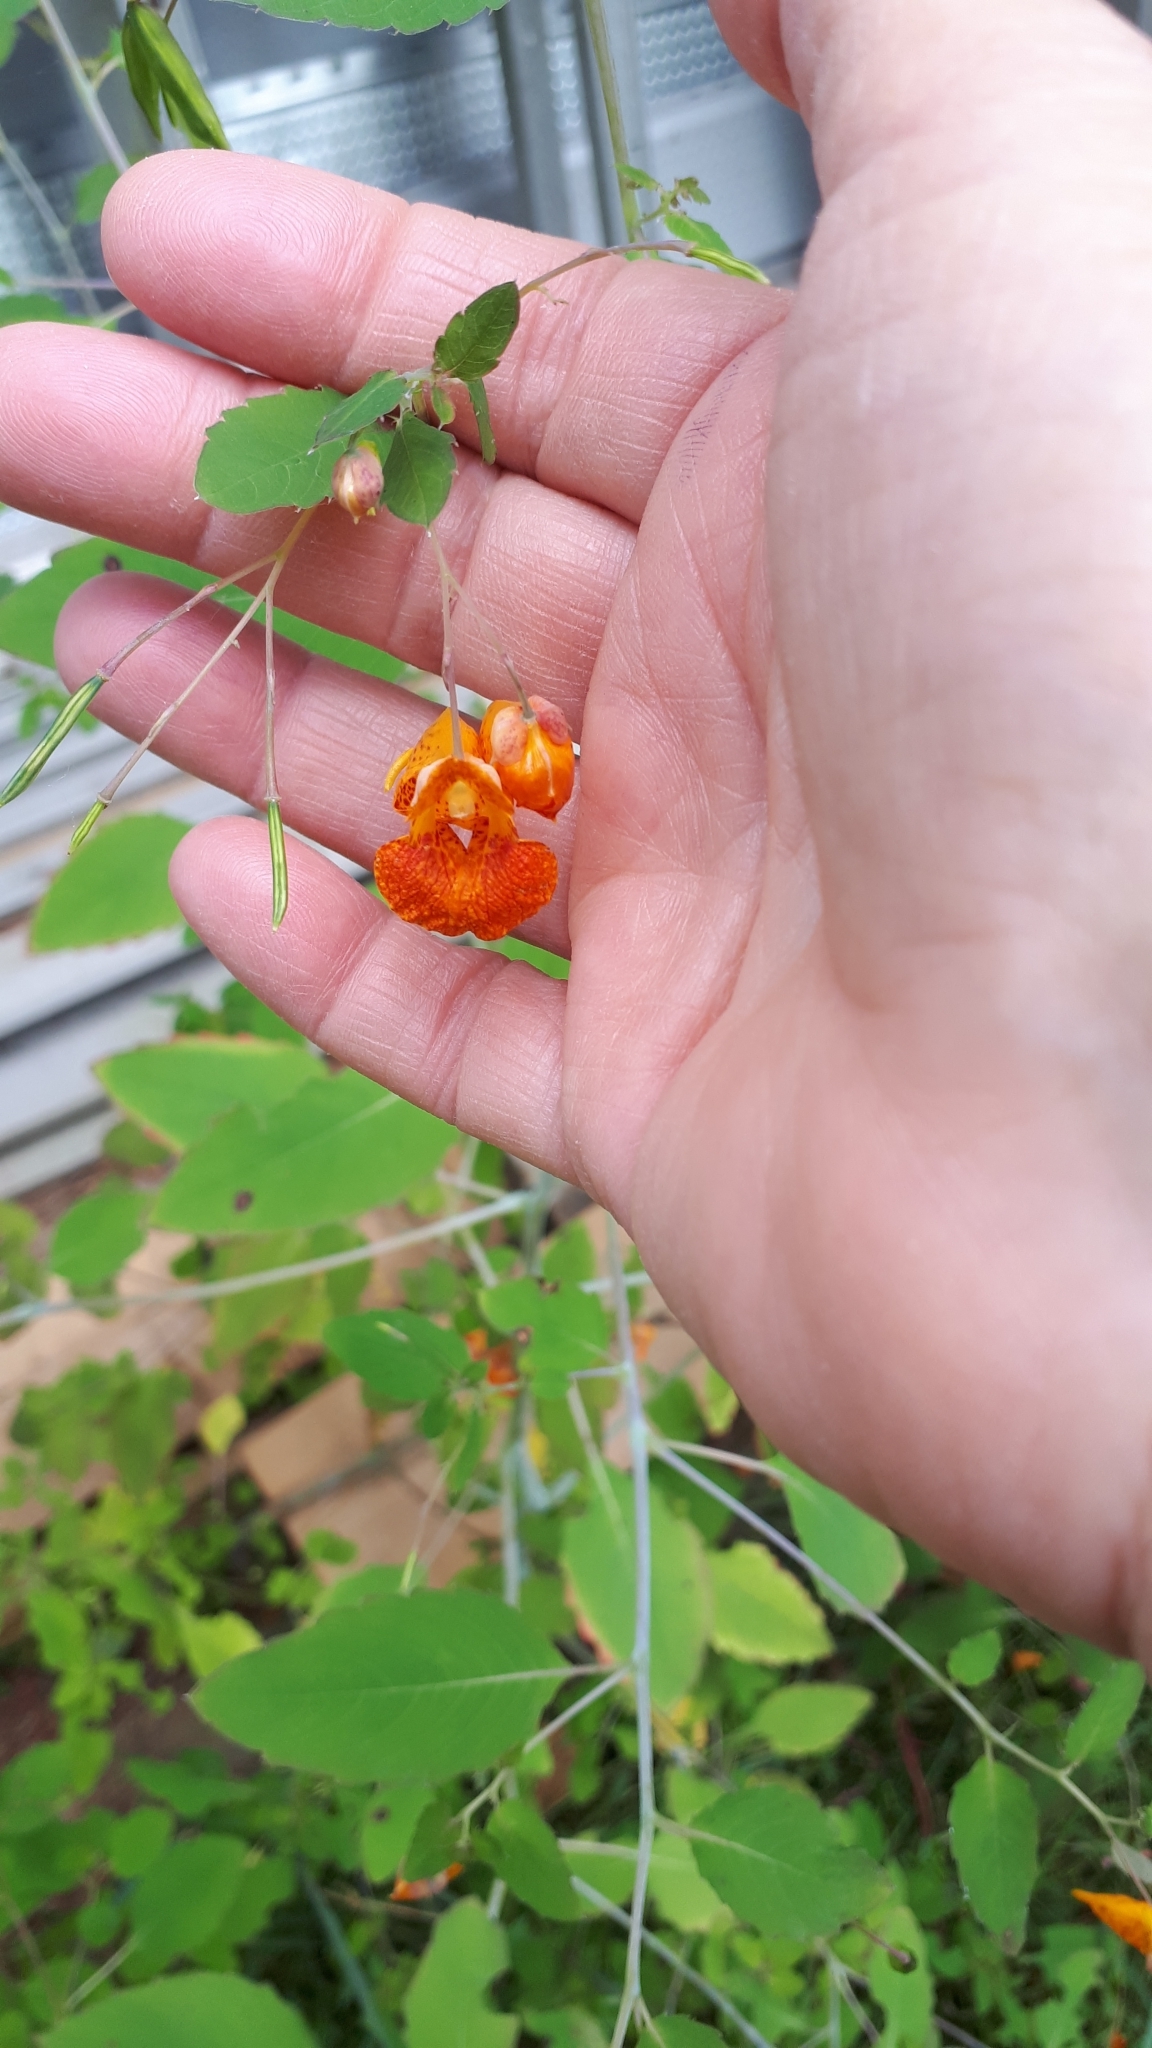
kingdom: Plantae
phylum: Tracheophyta
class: Magnoliopsida
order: Ericales
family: Balsaminaceae
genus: Impatiens
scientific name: Impatiens capensis
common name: Orange balsam
